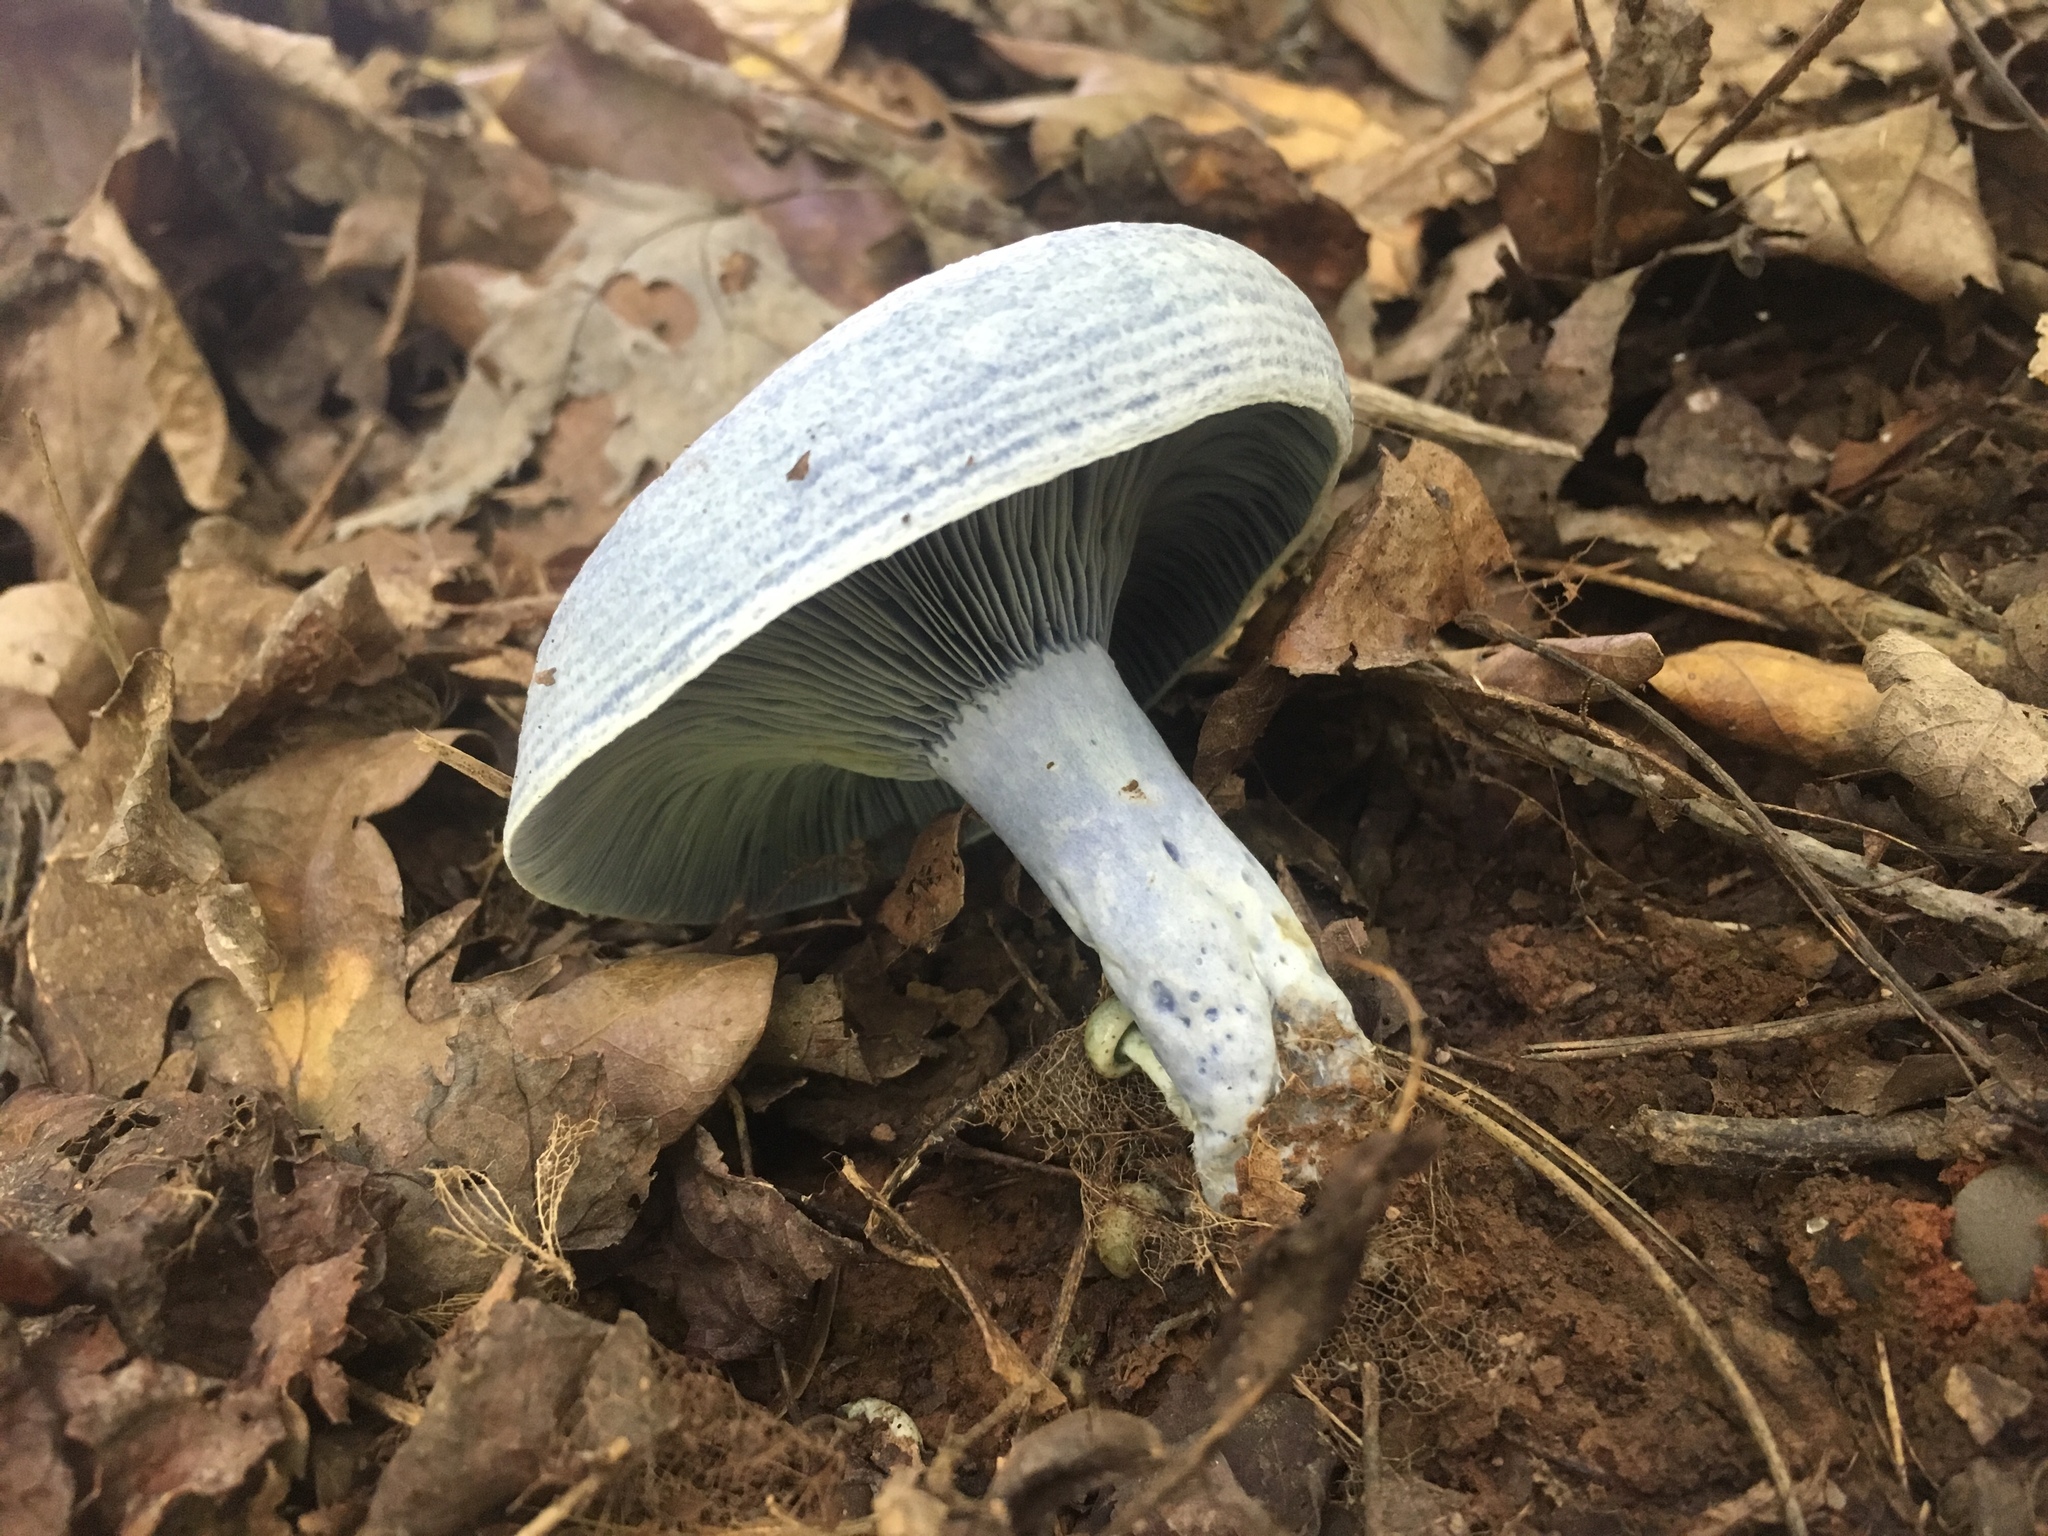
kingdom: Fungi
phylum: Basidiomycota
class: Agaricomycetes
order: Russulales
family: Russulaceae
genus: Lactarius
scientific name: Lactarius indigo
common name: Indigo milk cap
